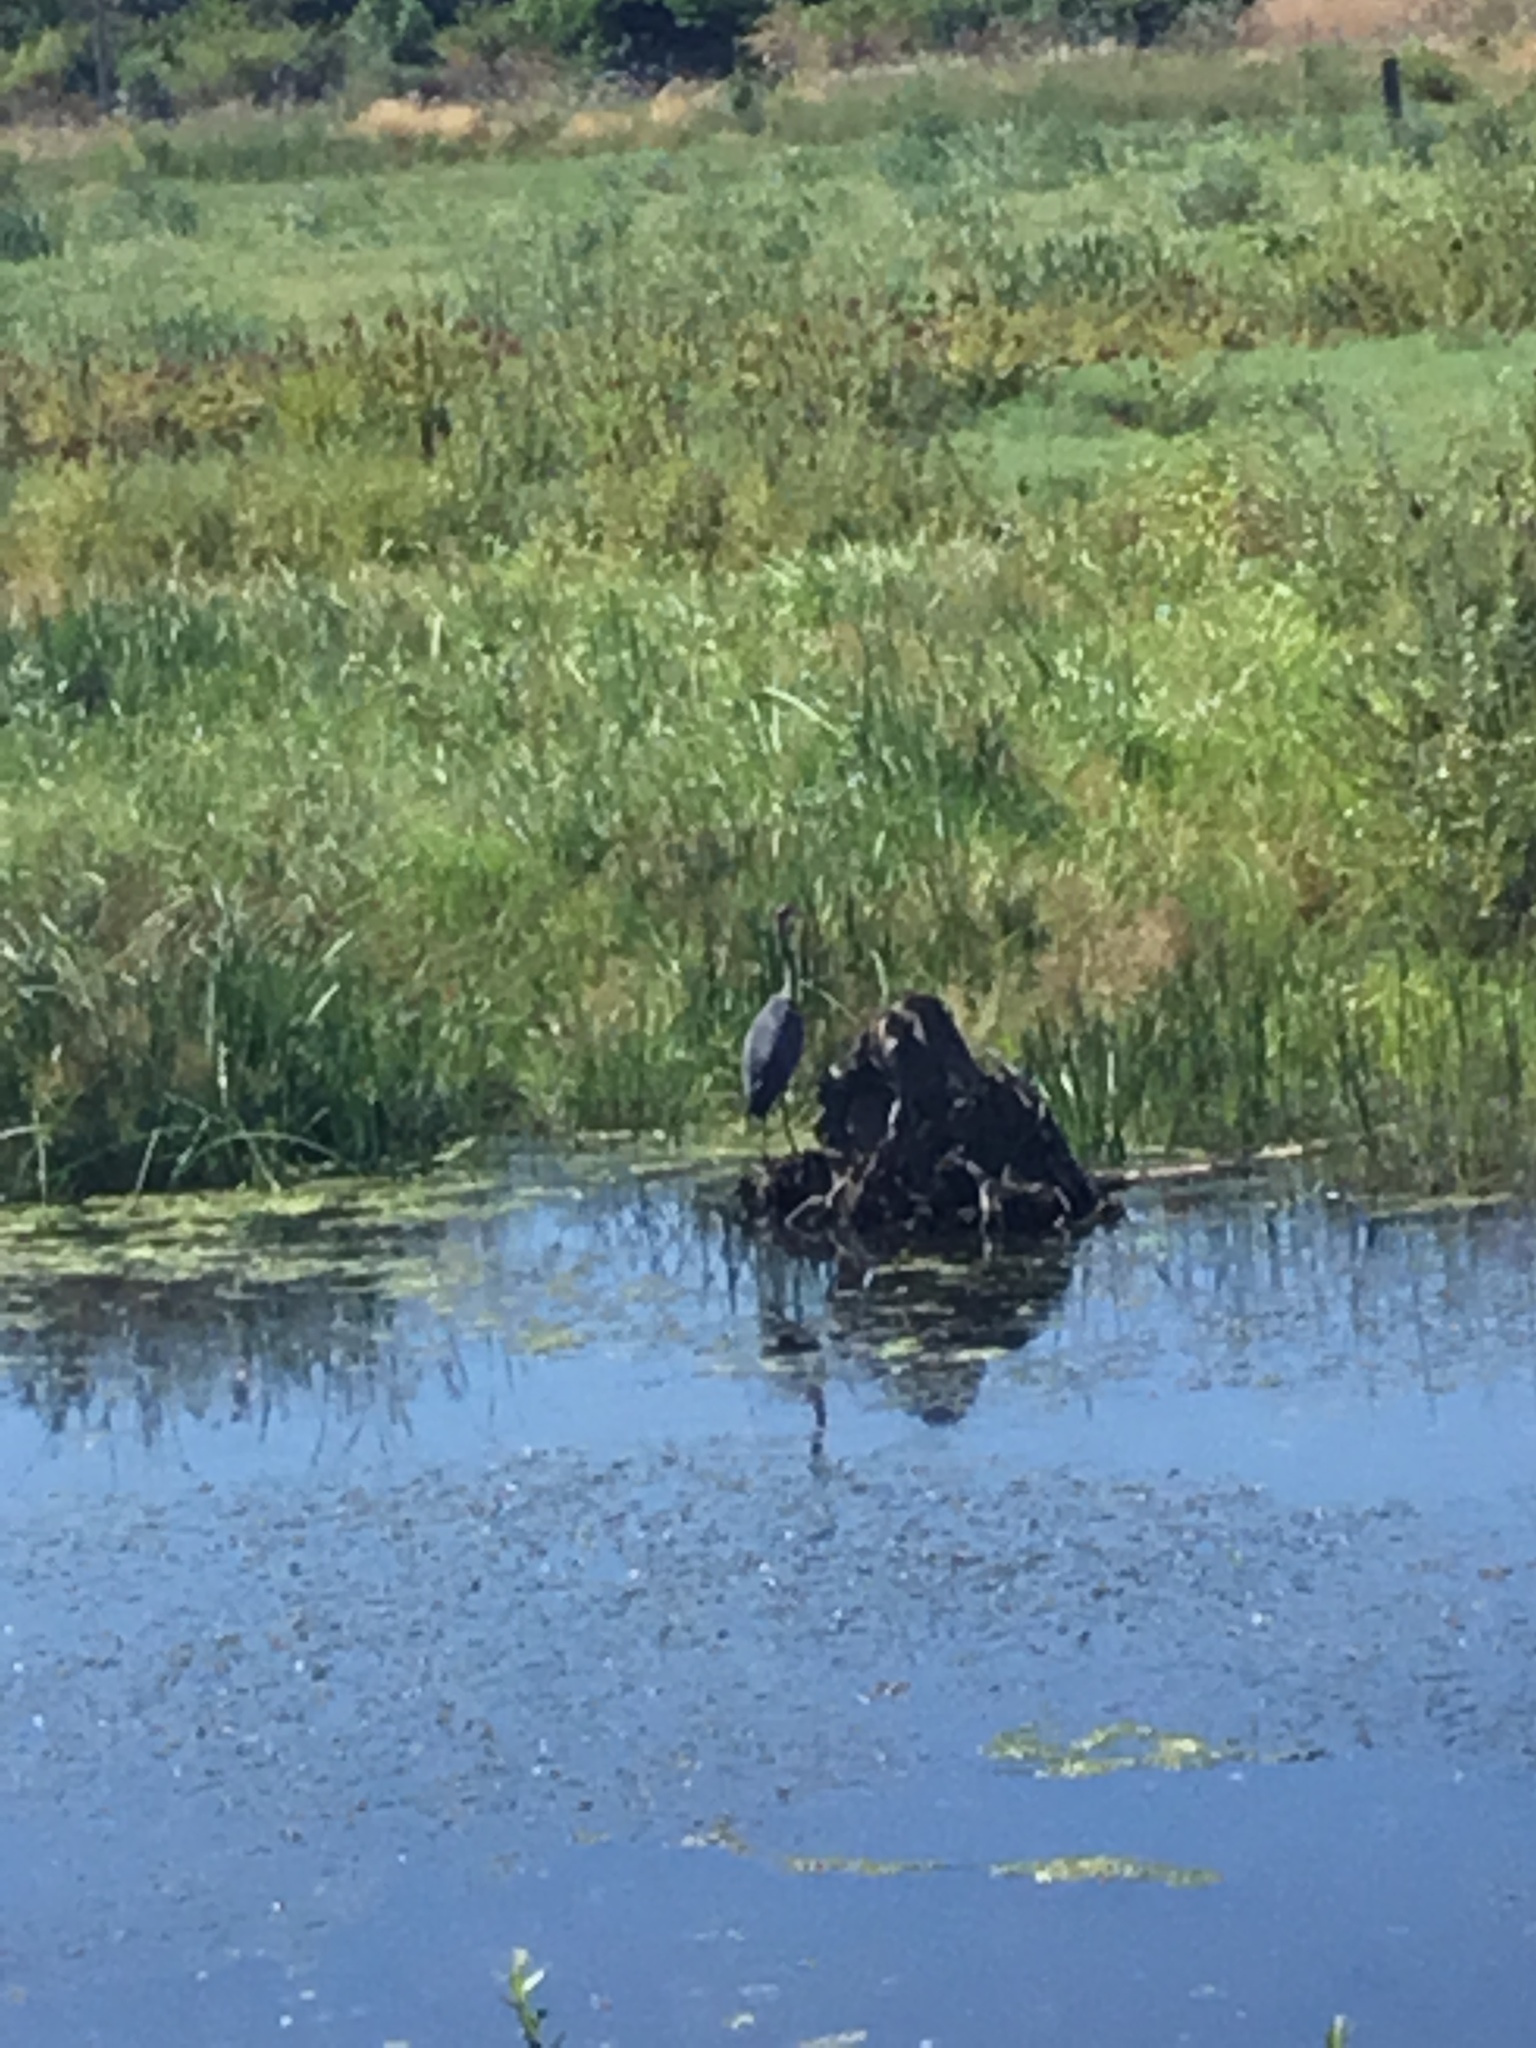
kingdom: Animalia
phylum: Chordata
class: Aves
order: Pelecaniformes
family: Ardeidae
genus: Ardea
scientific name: Ardea herodias
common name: Great blue heron
